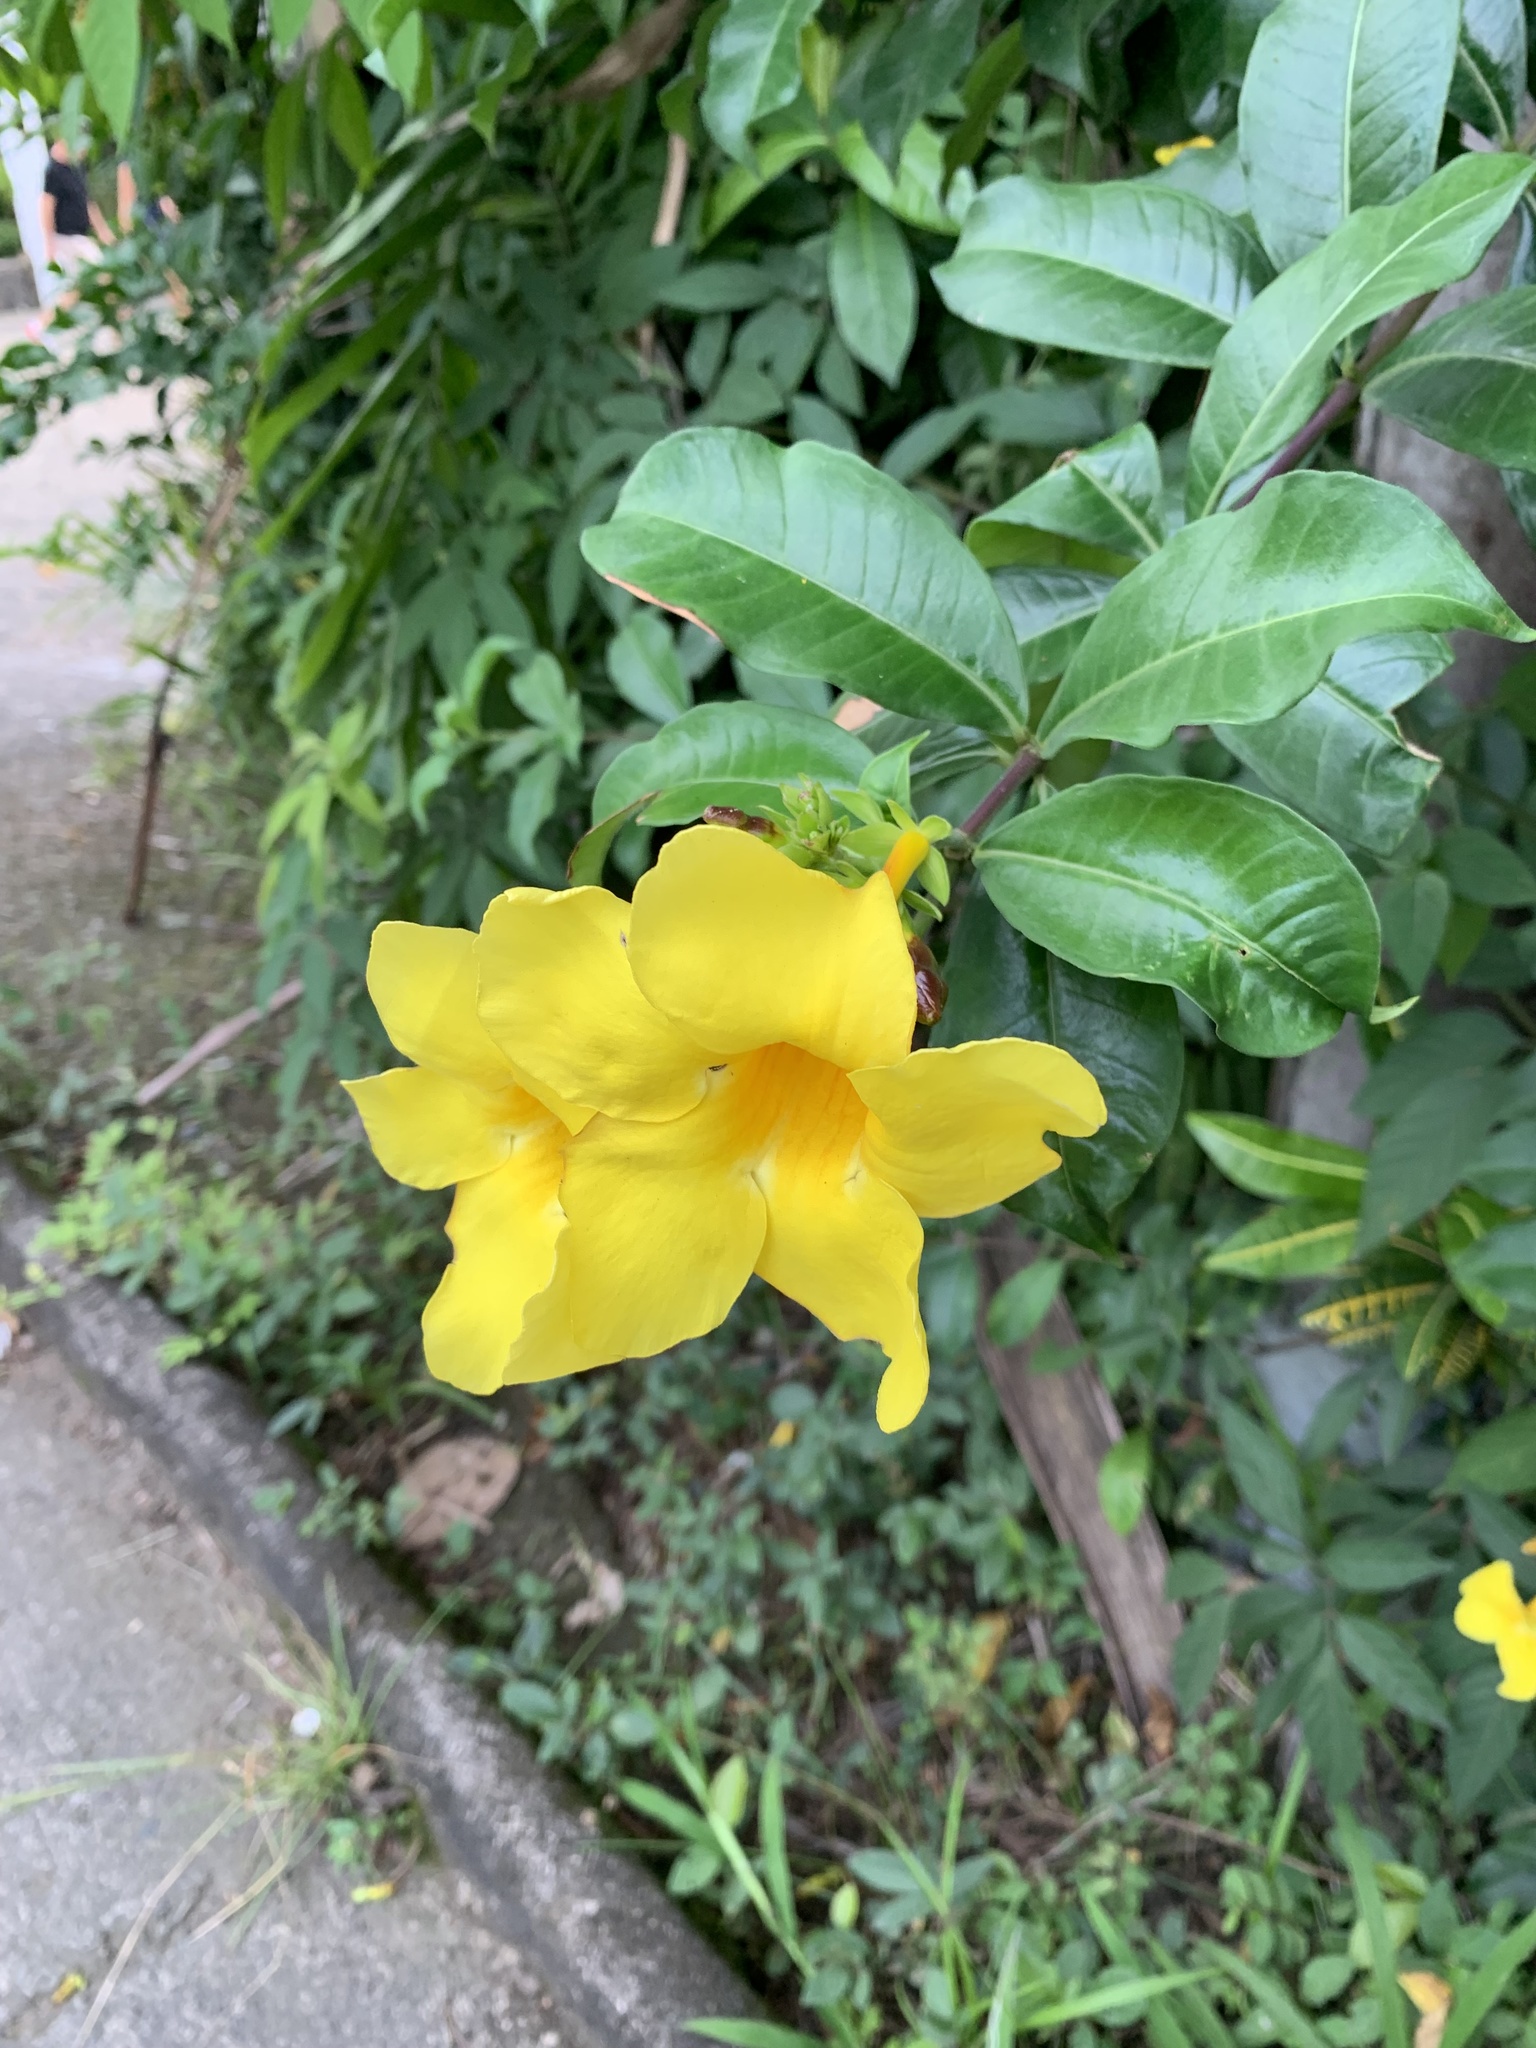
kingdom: Plantae
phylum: Tracheophyta
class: Magnoliopsida
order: Gentianales
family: Apocynaceae
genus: Allamanda
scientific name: Allamanda cathartica
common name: Golden trumpet
